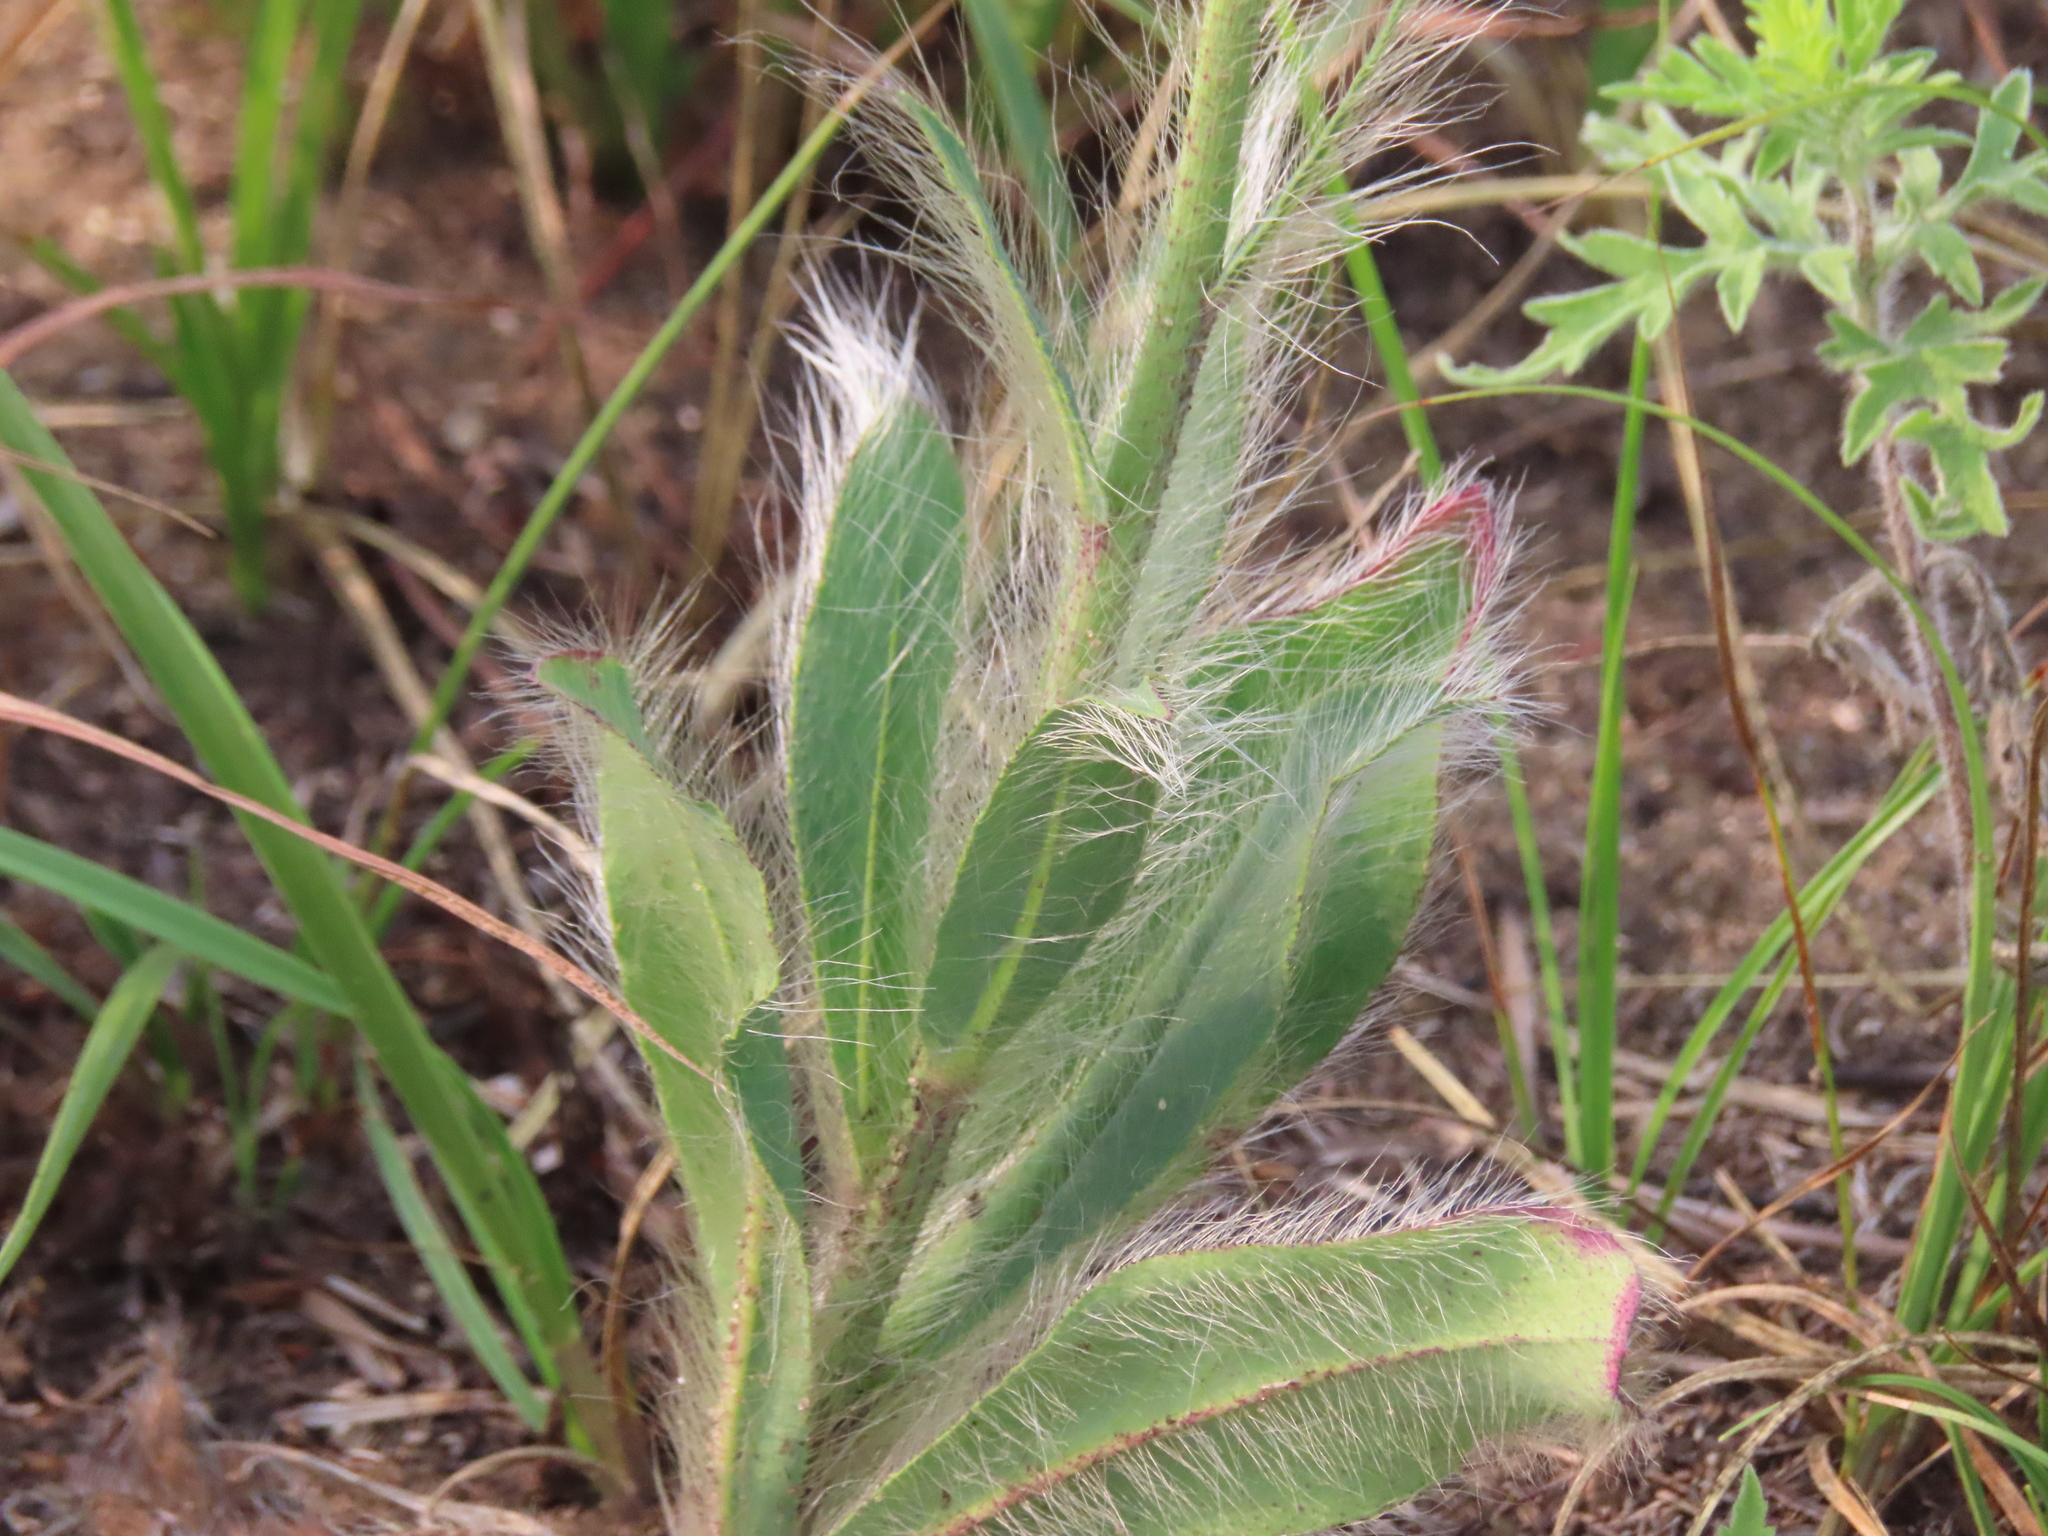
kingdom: Plantae
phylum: Tracheophyta
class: Magnoliopsida
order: Asterales
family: Asteraceae
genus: Hieracium
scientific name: Hieracium longipilum
